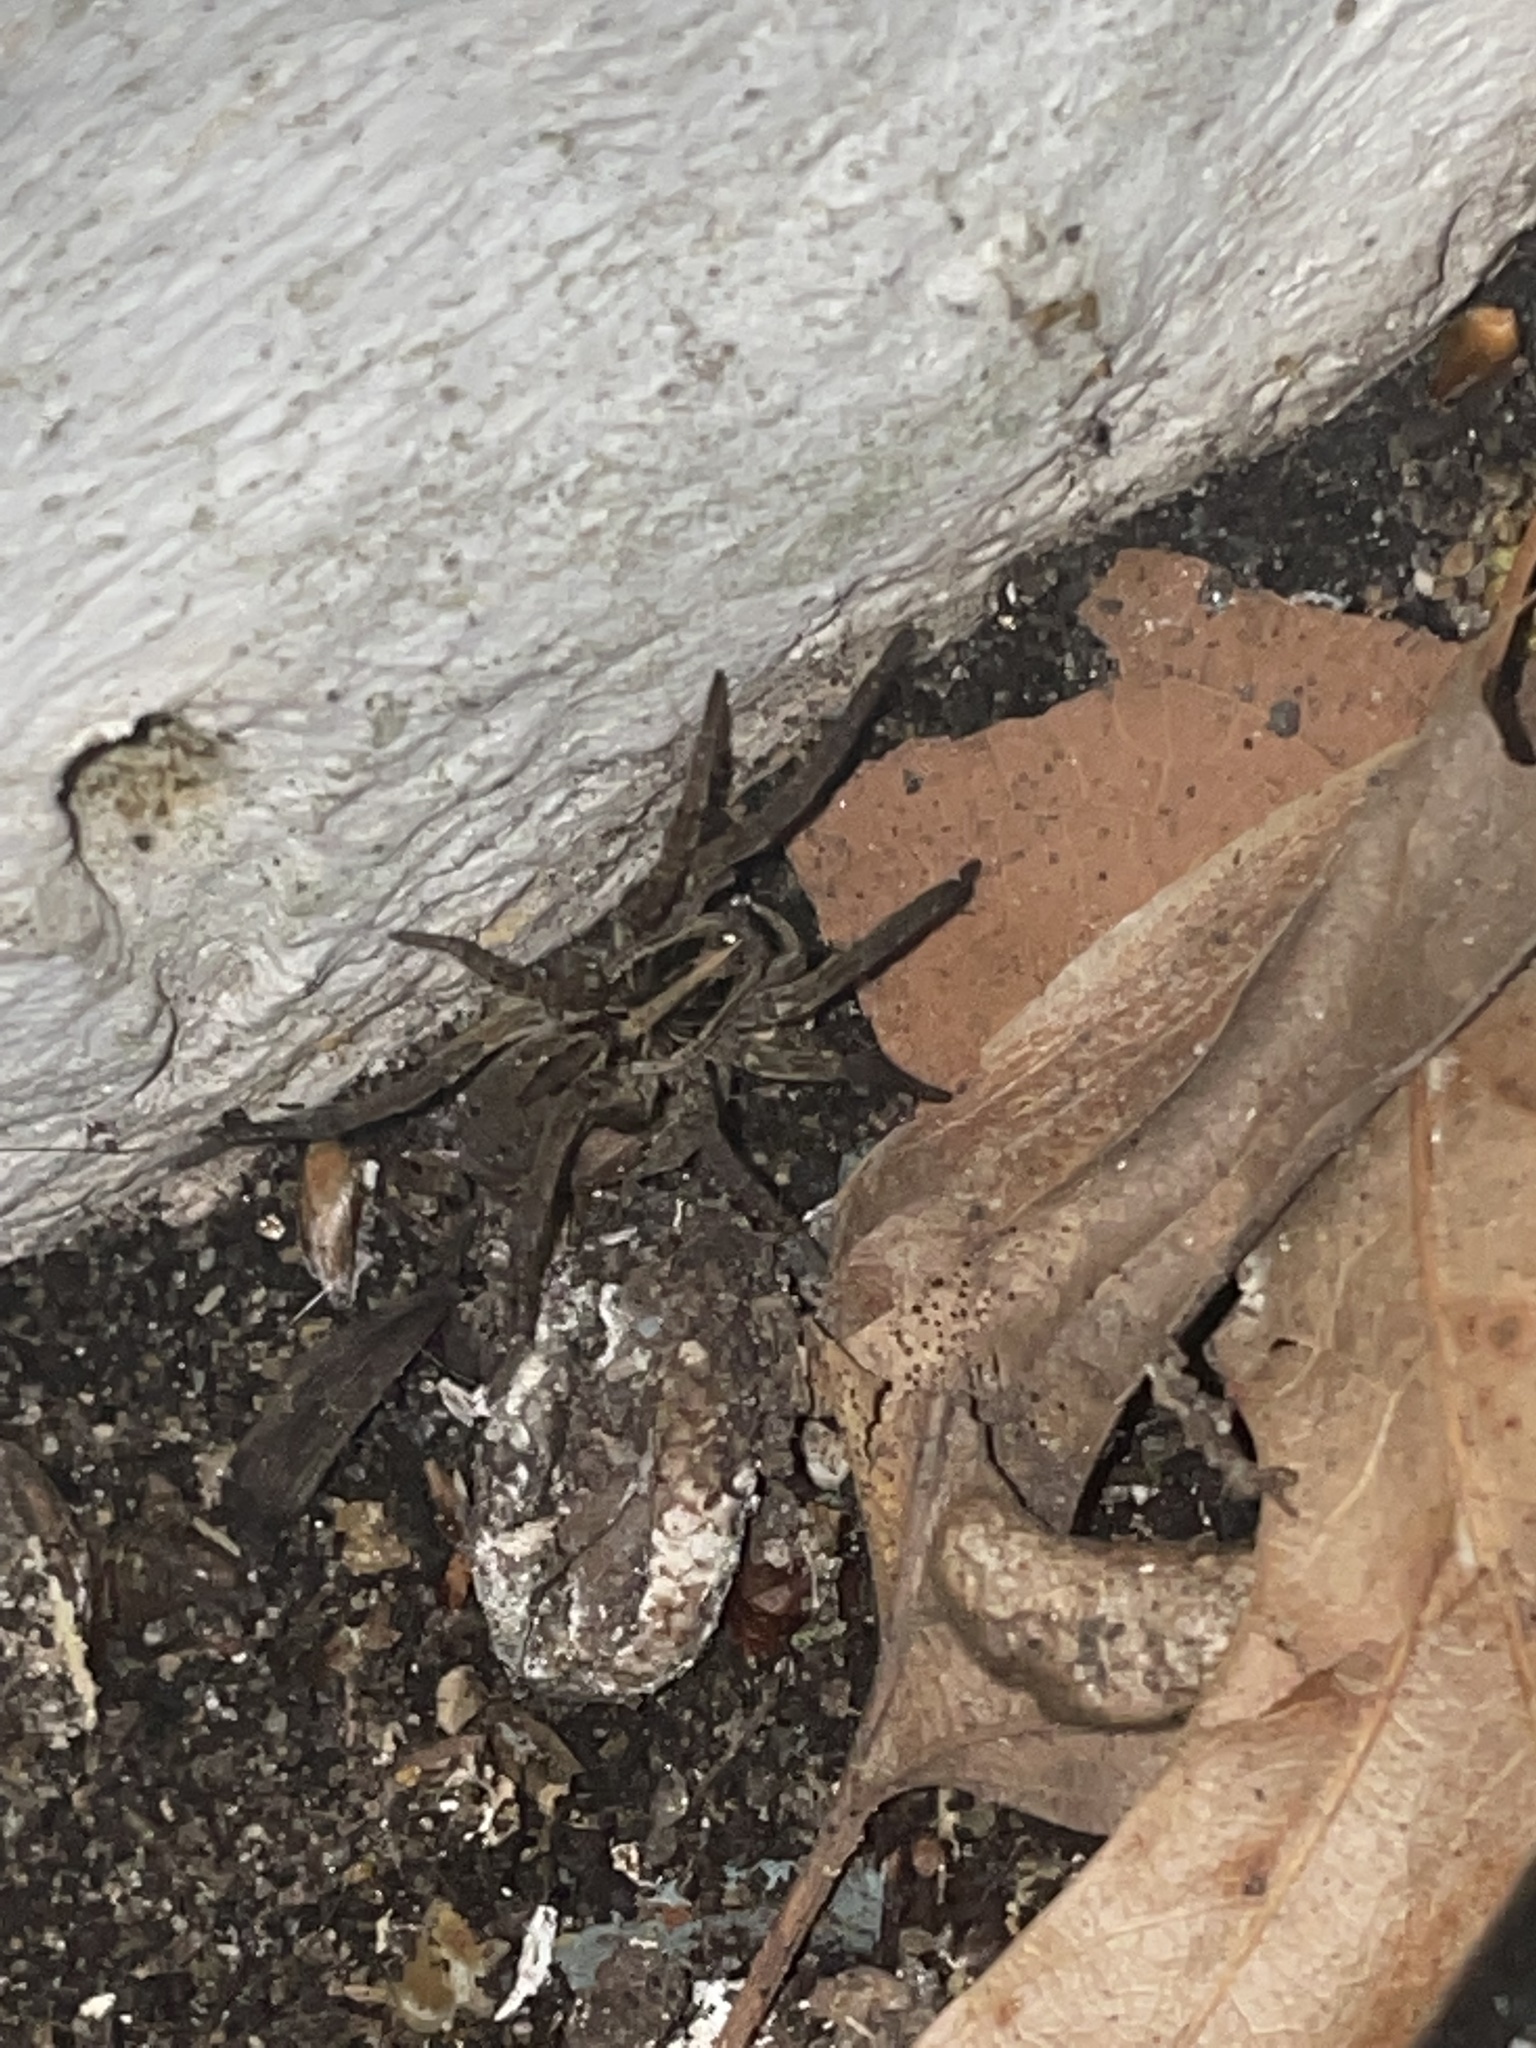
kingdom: Animalia
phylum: Arthropoda
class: Arachnida
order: Araneae
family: Lycosidae
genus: Tigrosa
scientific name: Tigrosa annexa
